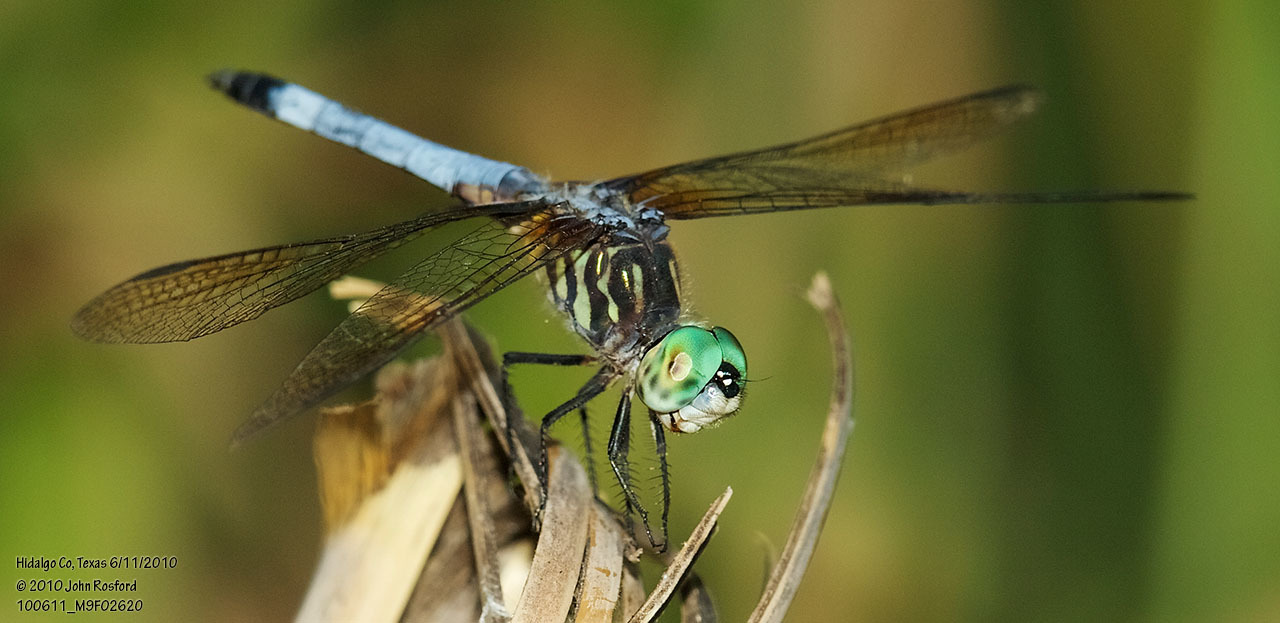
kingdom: Animalia
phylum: Arthropoda
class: Insecta
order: Odonata
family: Libellulidae
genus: Pachydiplax
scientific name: Pachydiplax longipennis
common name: Blue dasher
